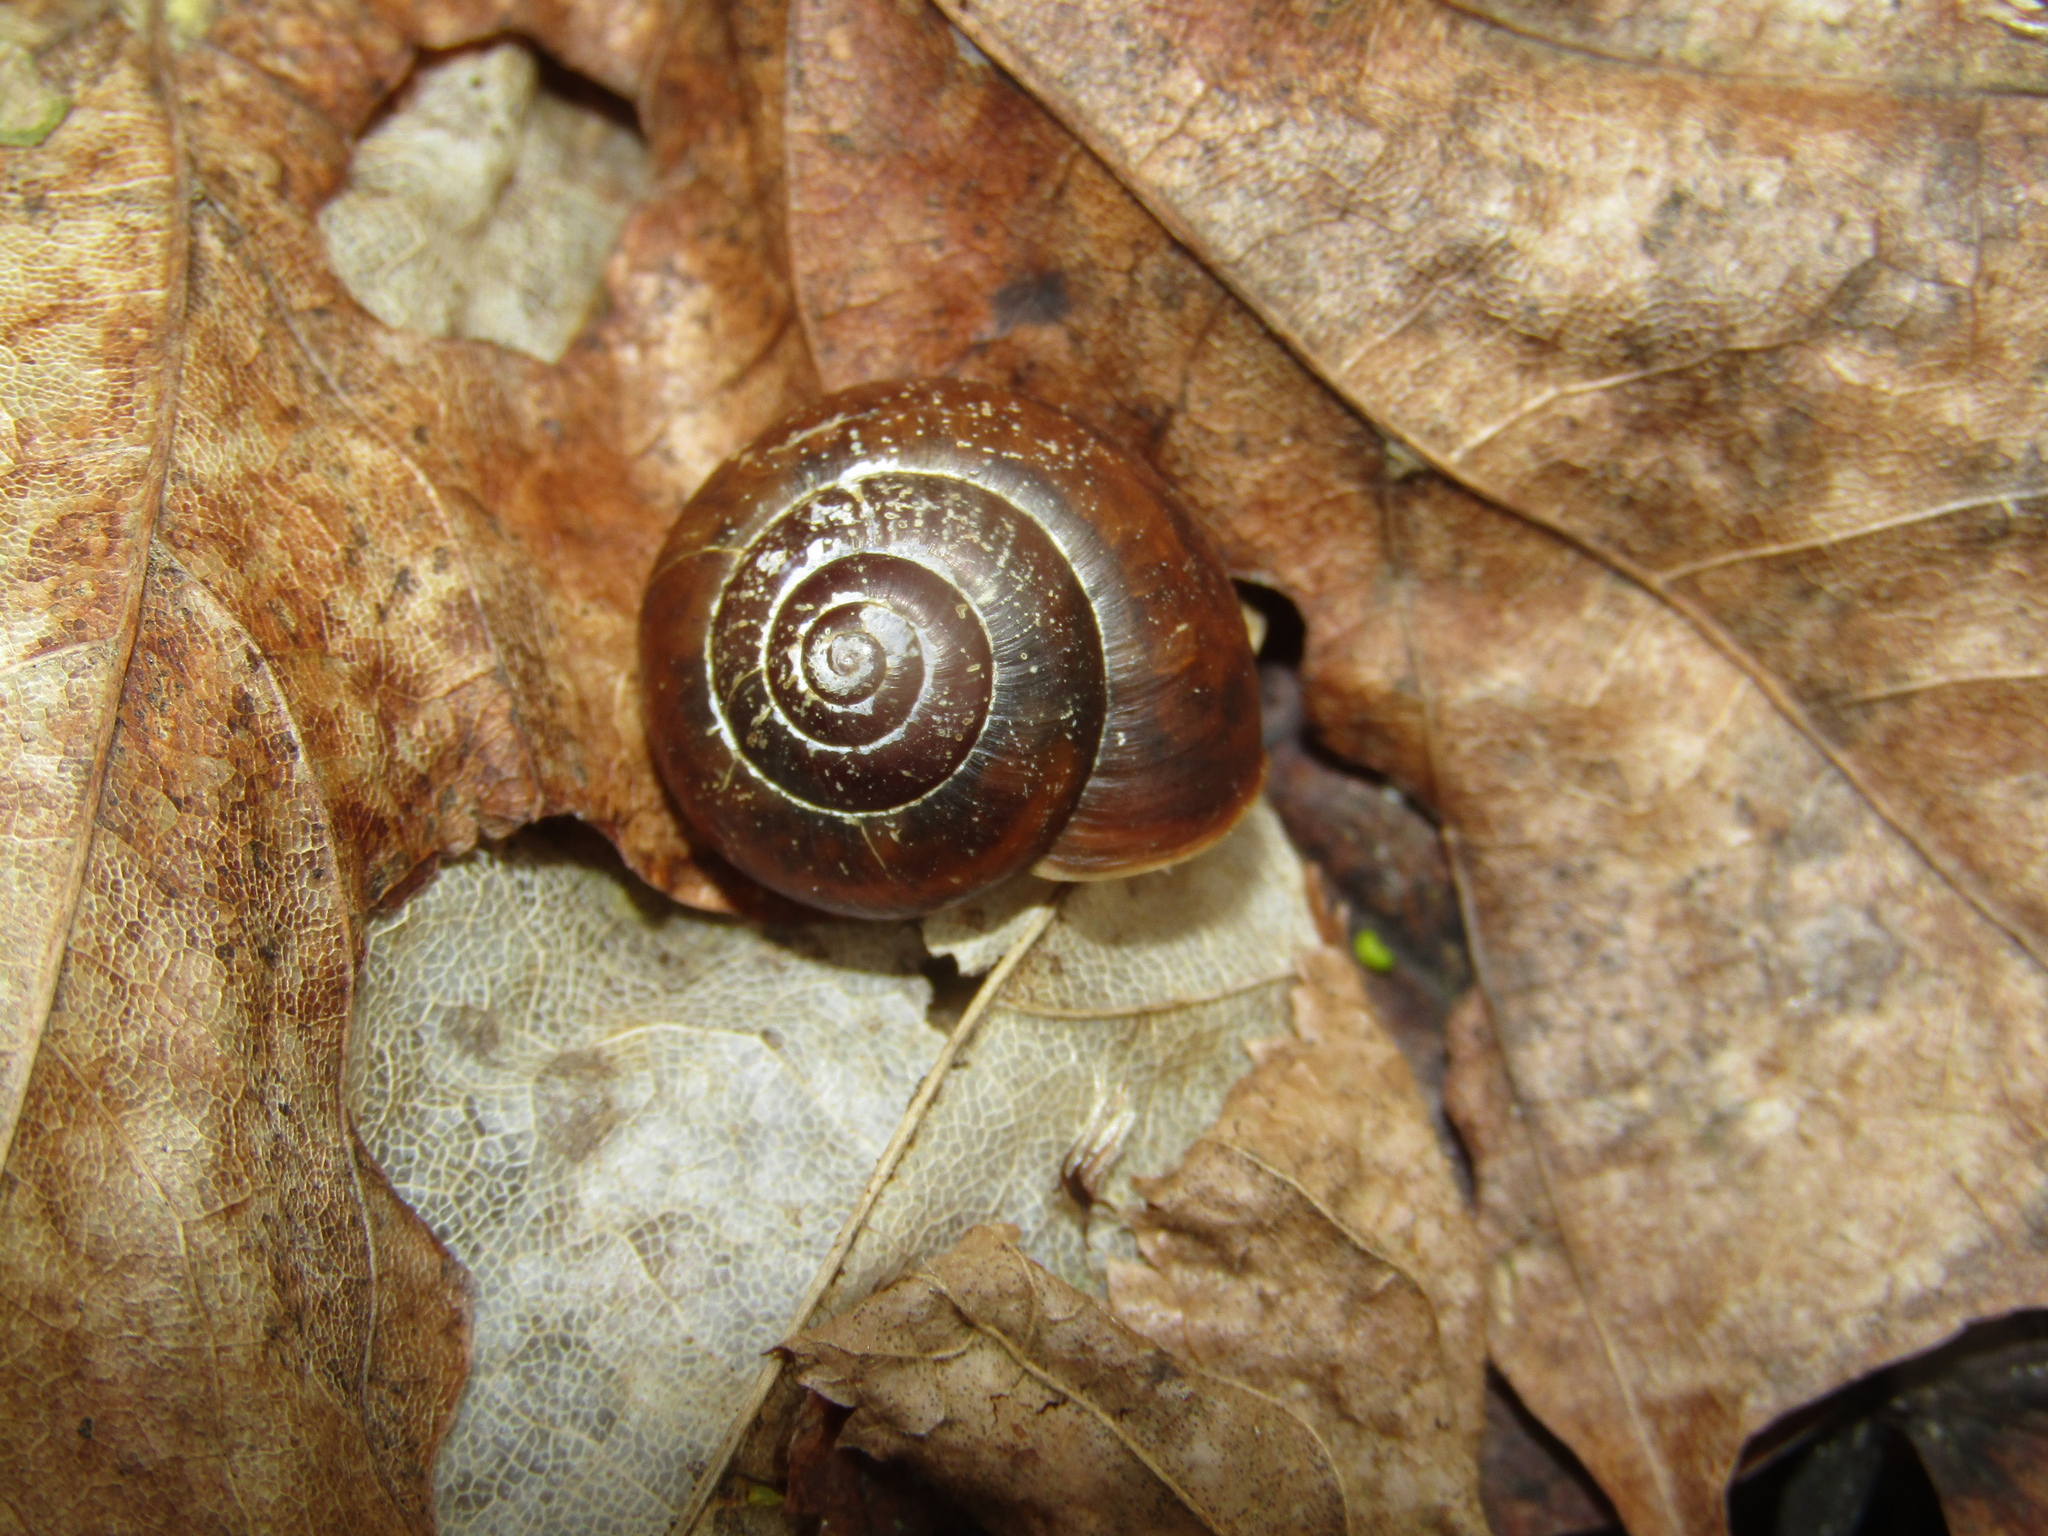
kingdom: Animalia
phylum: Mollusca
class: Gastropoda
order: Stylommatophora
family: Camaenidae
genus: Fruticicola
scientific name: Fruticicola fruticum
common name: Bush snail
